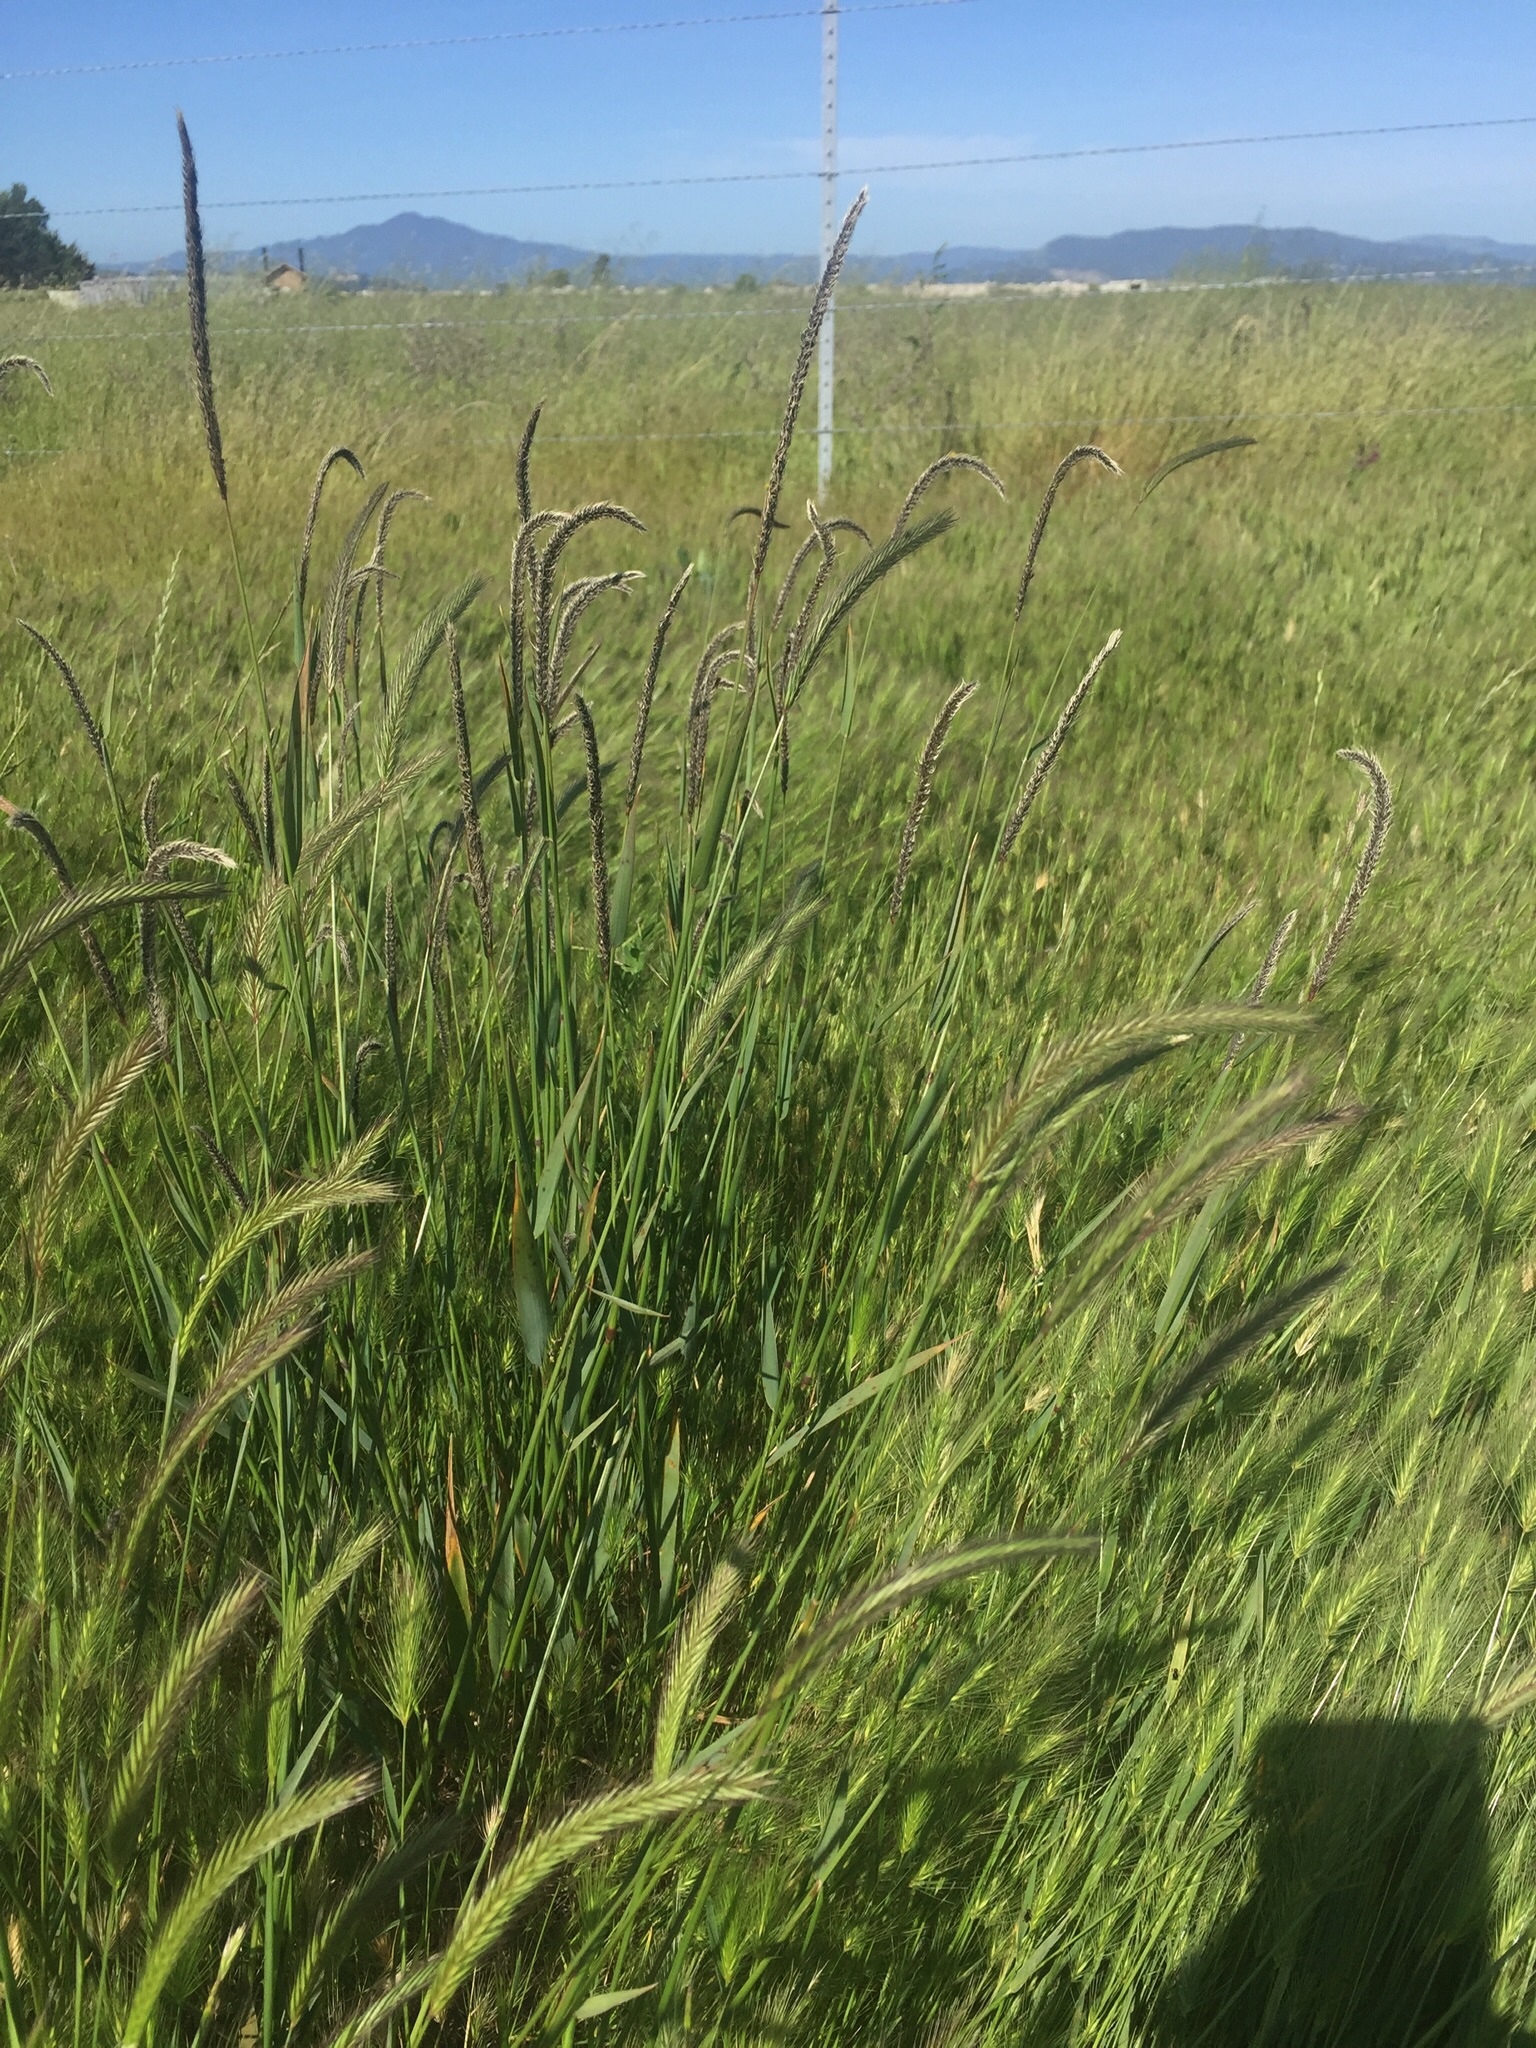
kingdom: Plantae
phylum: Tracheophyta
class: Liliopsida
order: Poales
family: Poaceae
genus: Hordeum
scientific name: Hordeum brachyantherum
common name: Meadow barley
